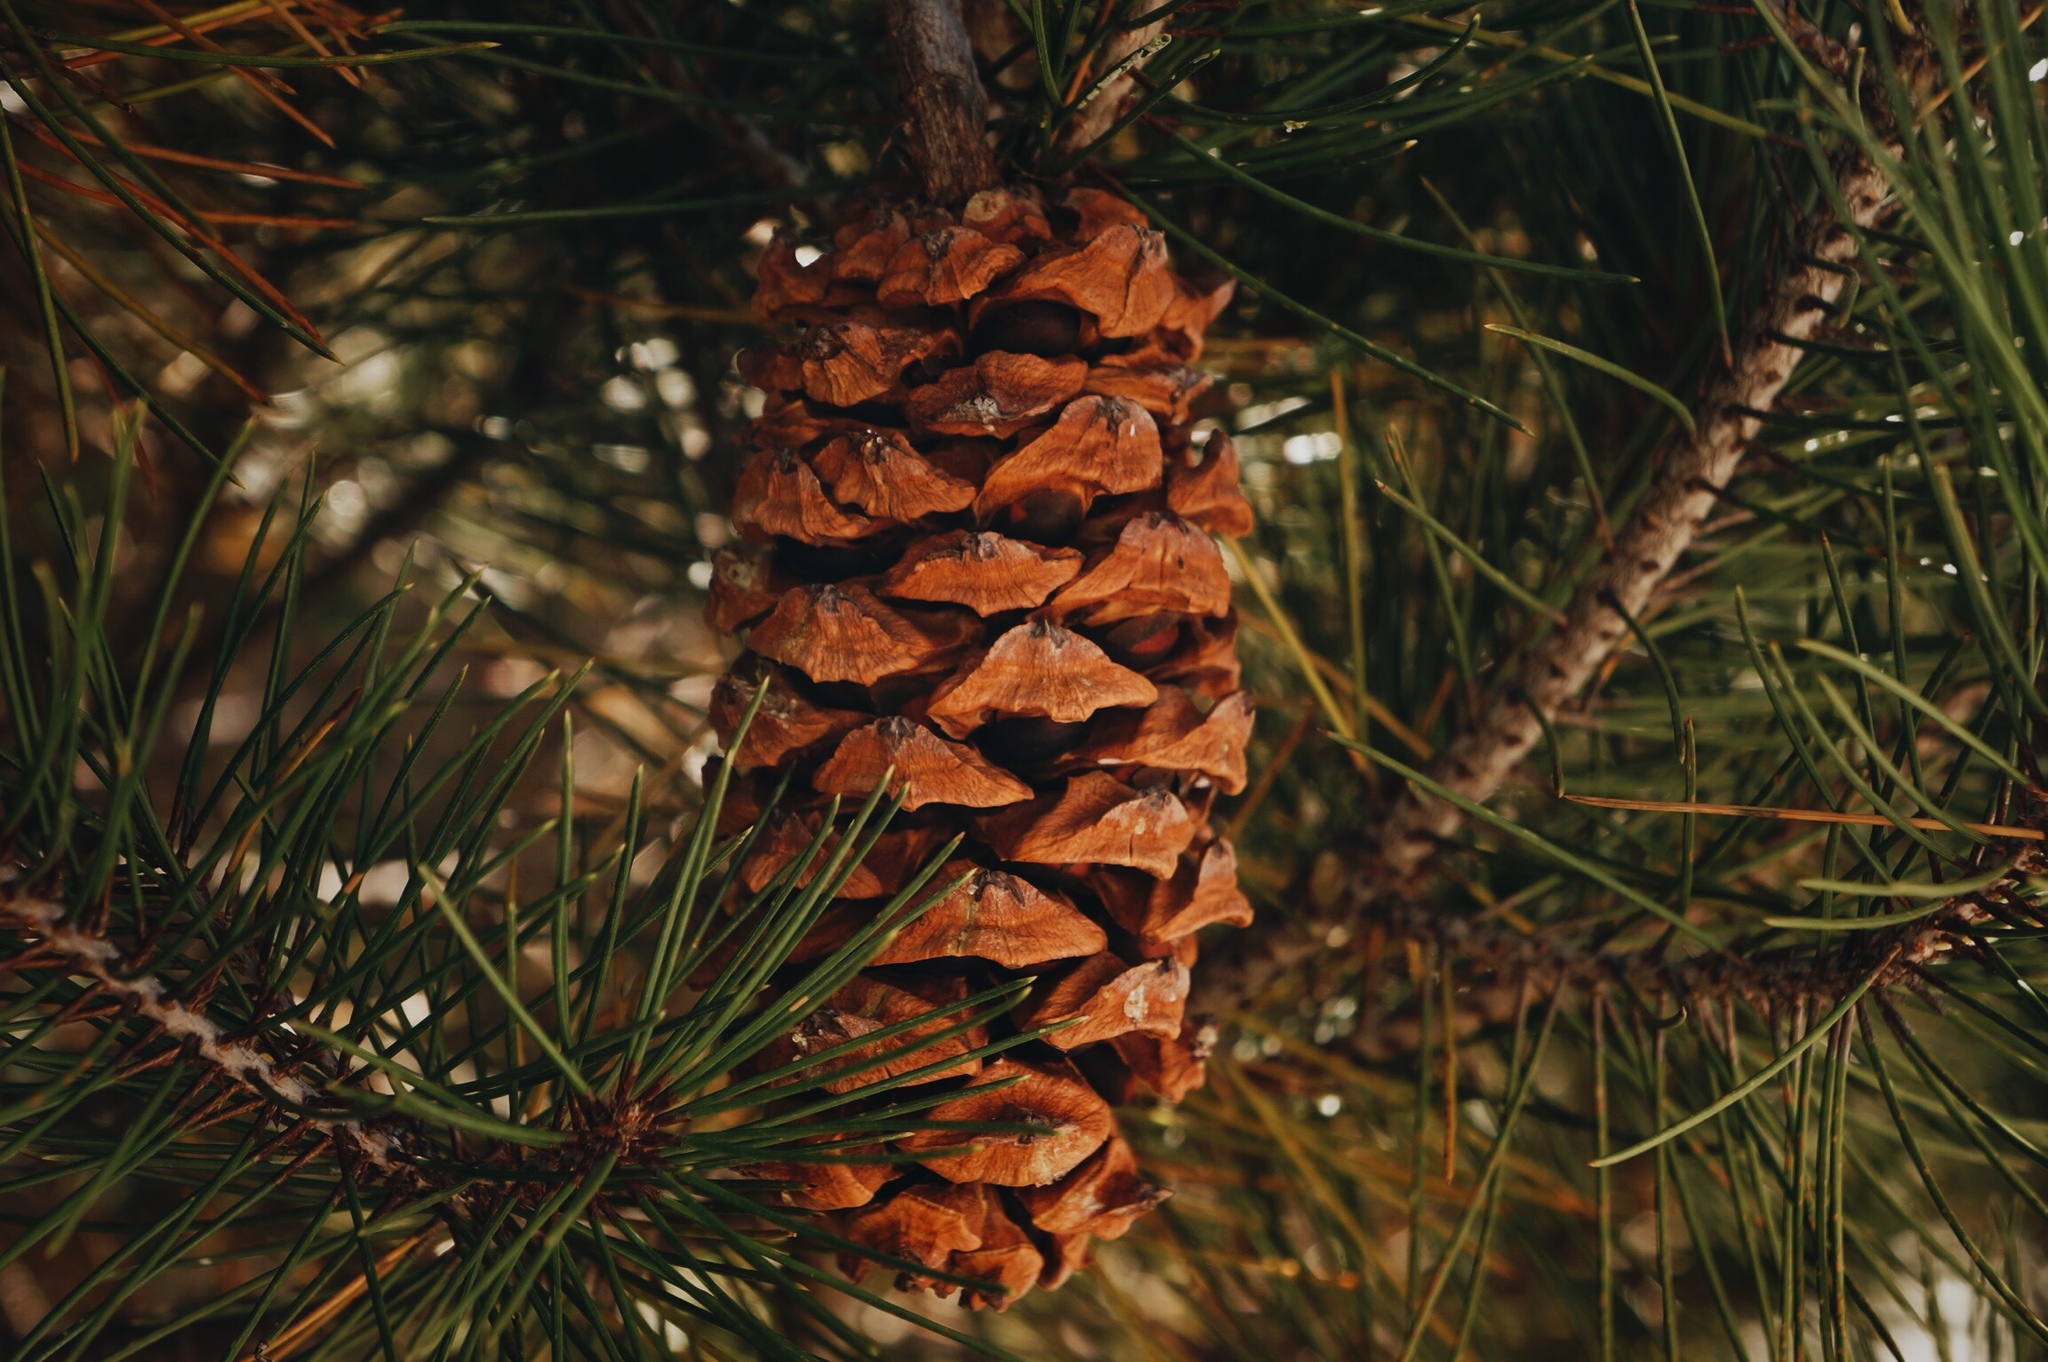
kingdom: Plantae
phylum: Tracheophyta
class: Pinopsida
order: Pinales
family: Pinaceae
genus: Pinus
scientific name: Pinus nelsonii
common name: Nelson pinyon pine
